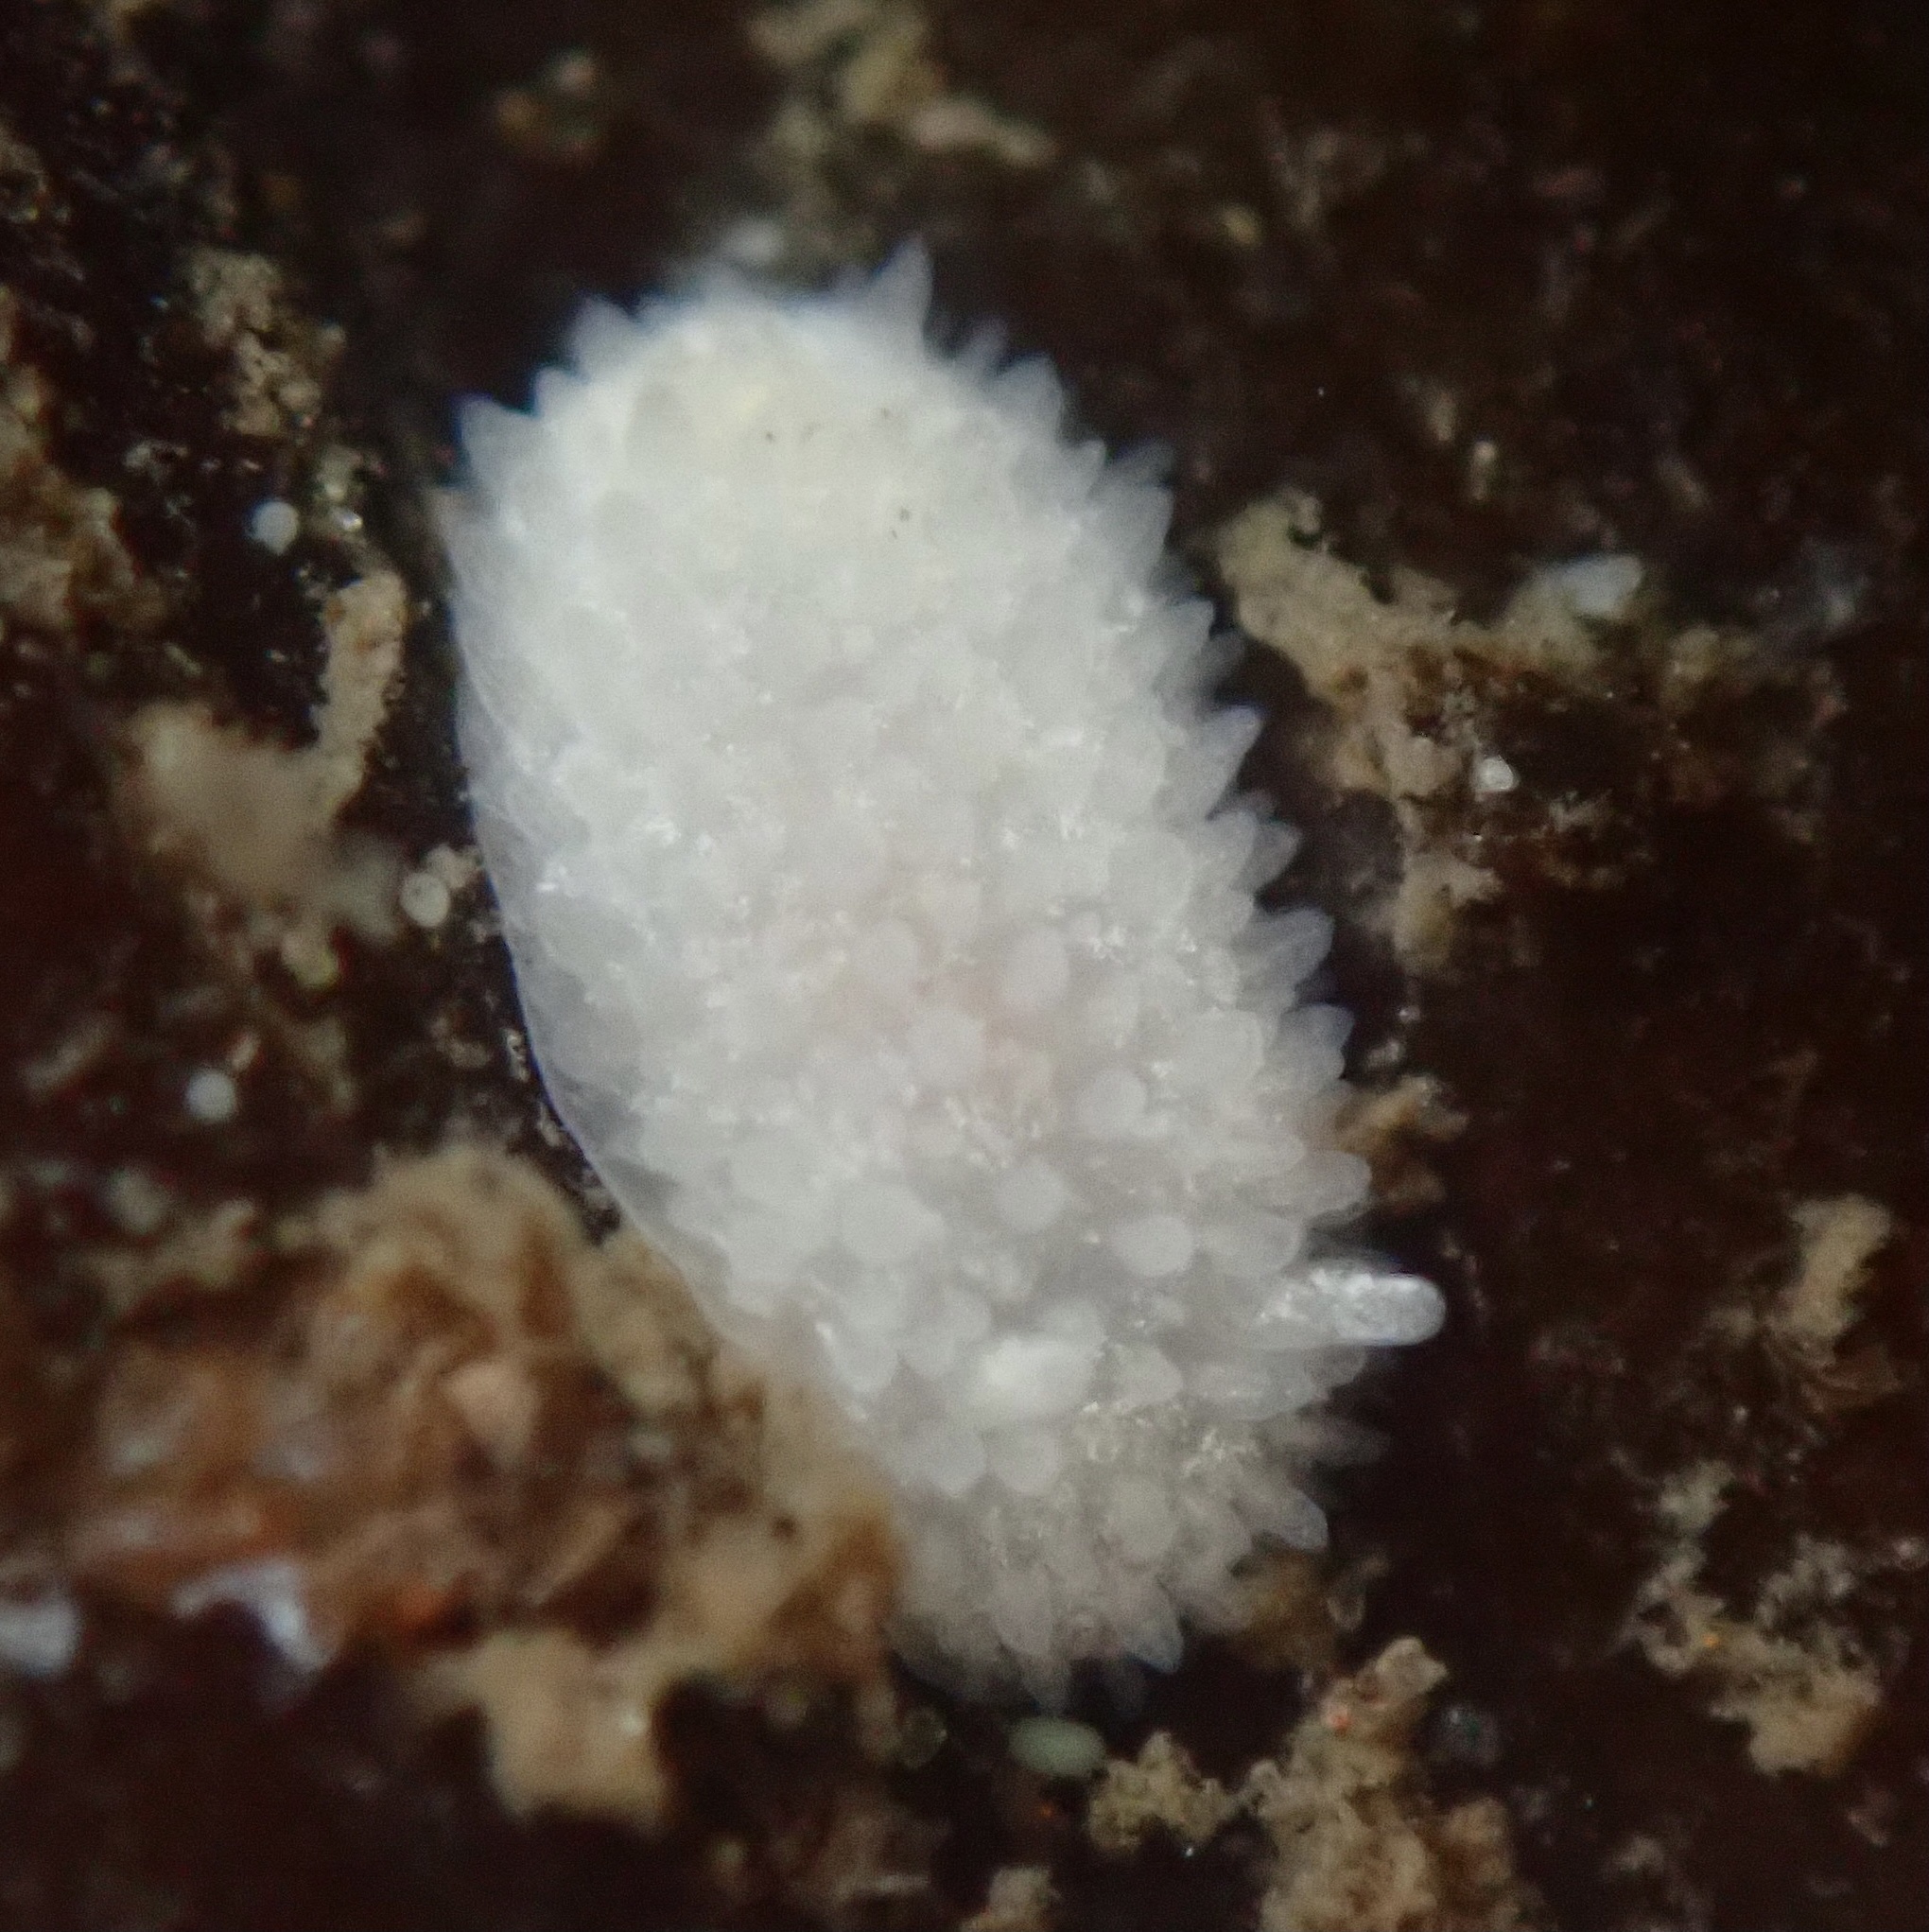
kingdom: Animalia
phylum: Mollusca
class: Gastropoda
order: Nudibranchia
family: Calycidorididae
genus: Diaphorodoris
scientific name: Diaphorodoris lirulatocauda
